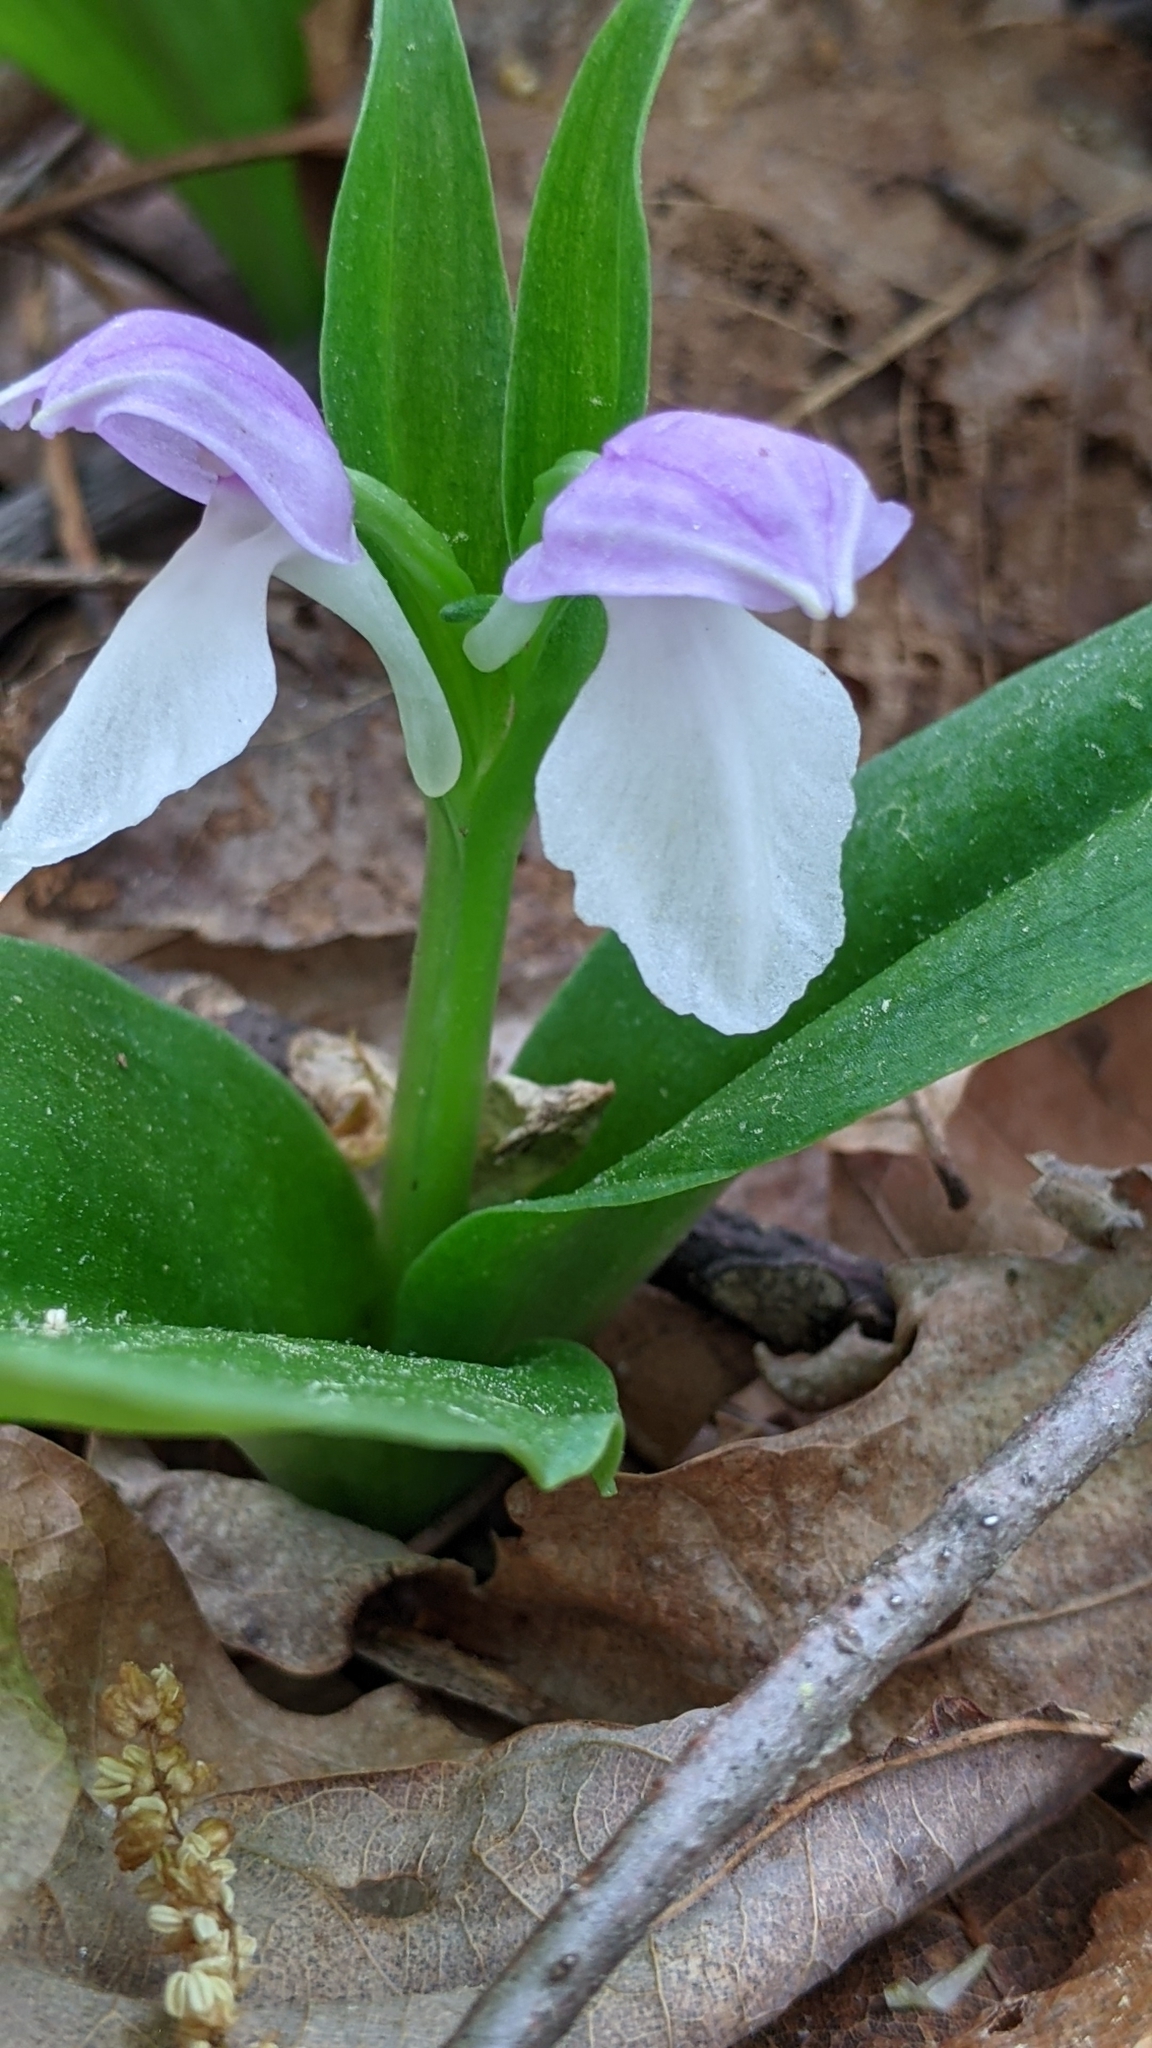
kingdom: Plantae
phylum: Tracheophyta
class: Liliopsida
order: Asparagales
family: Orchidaceae
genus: Galearis
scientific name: Galearis spectabilis
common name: Purple-hooded orchis
